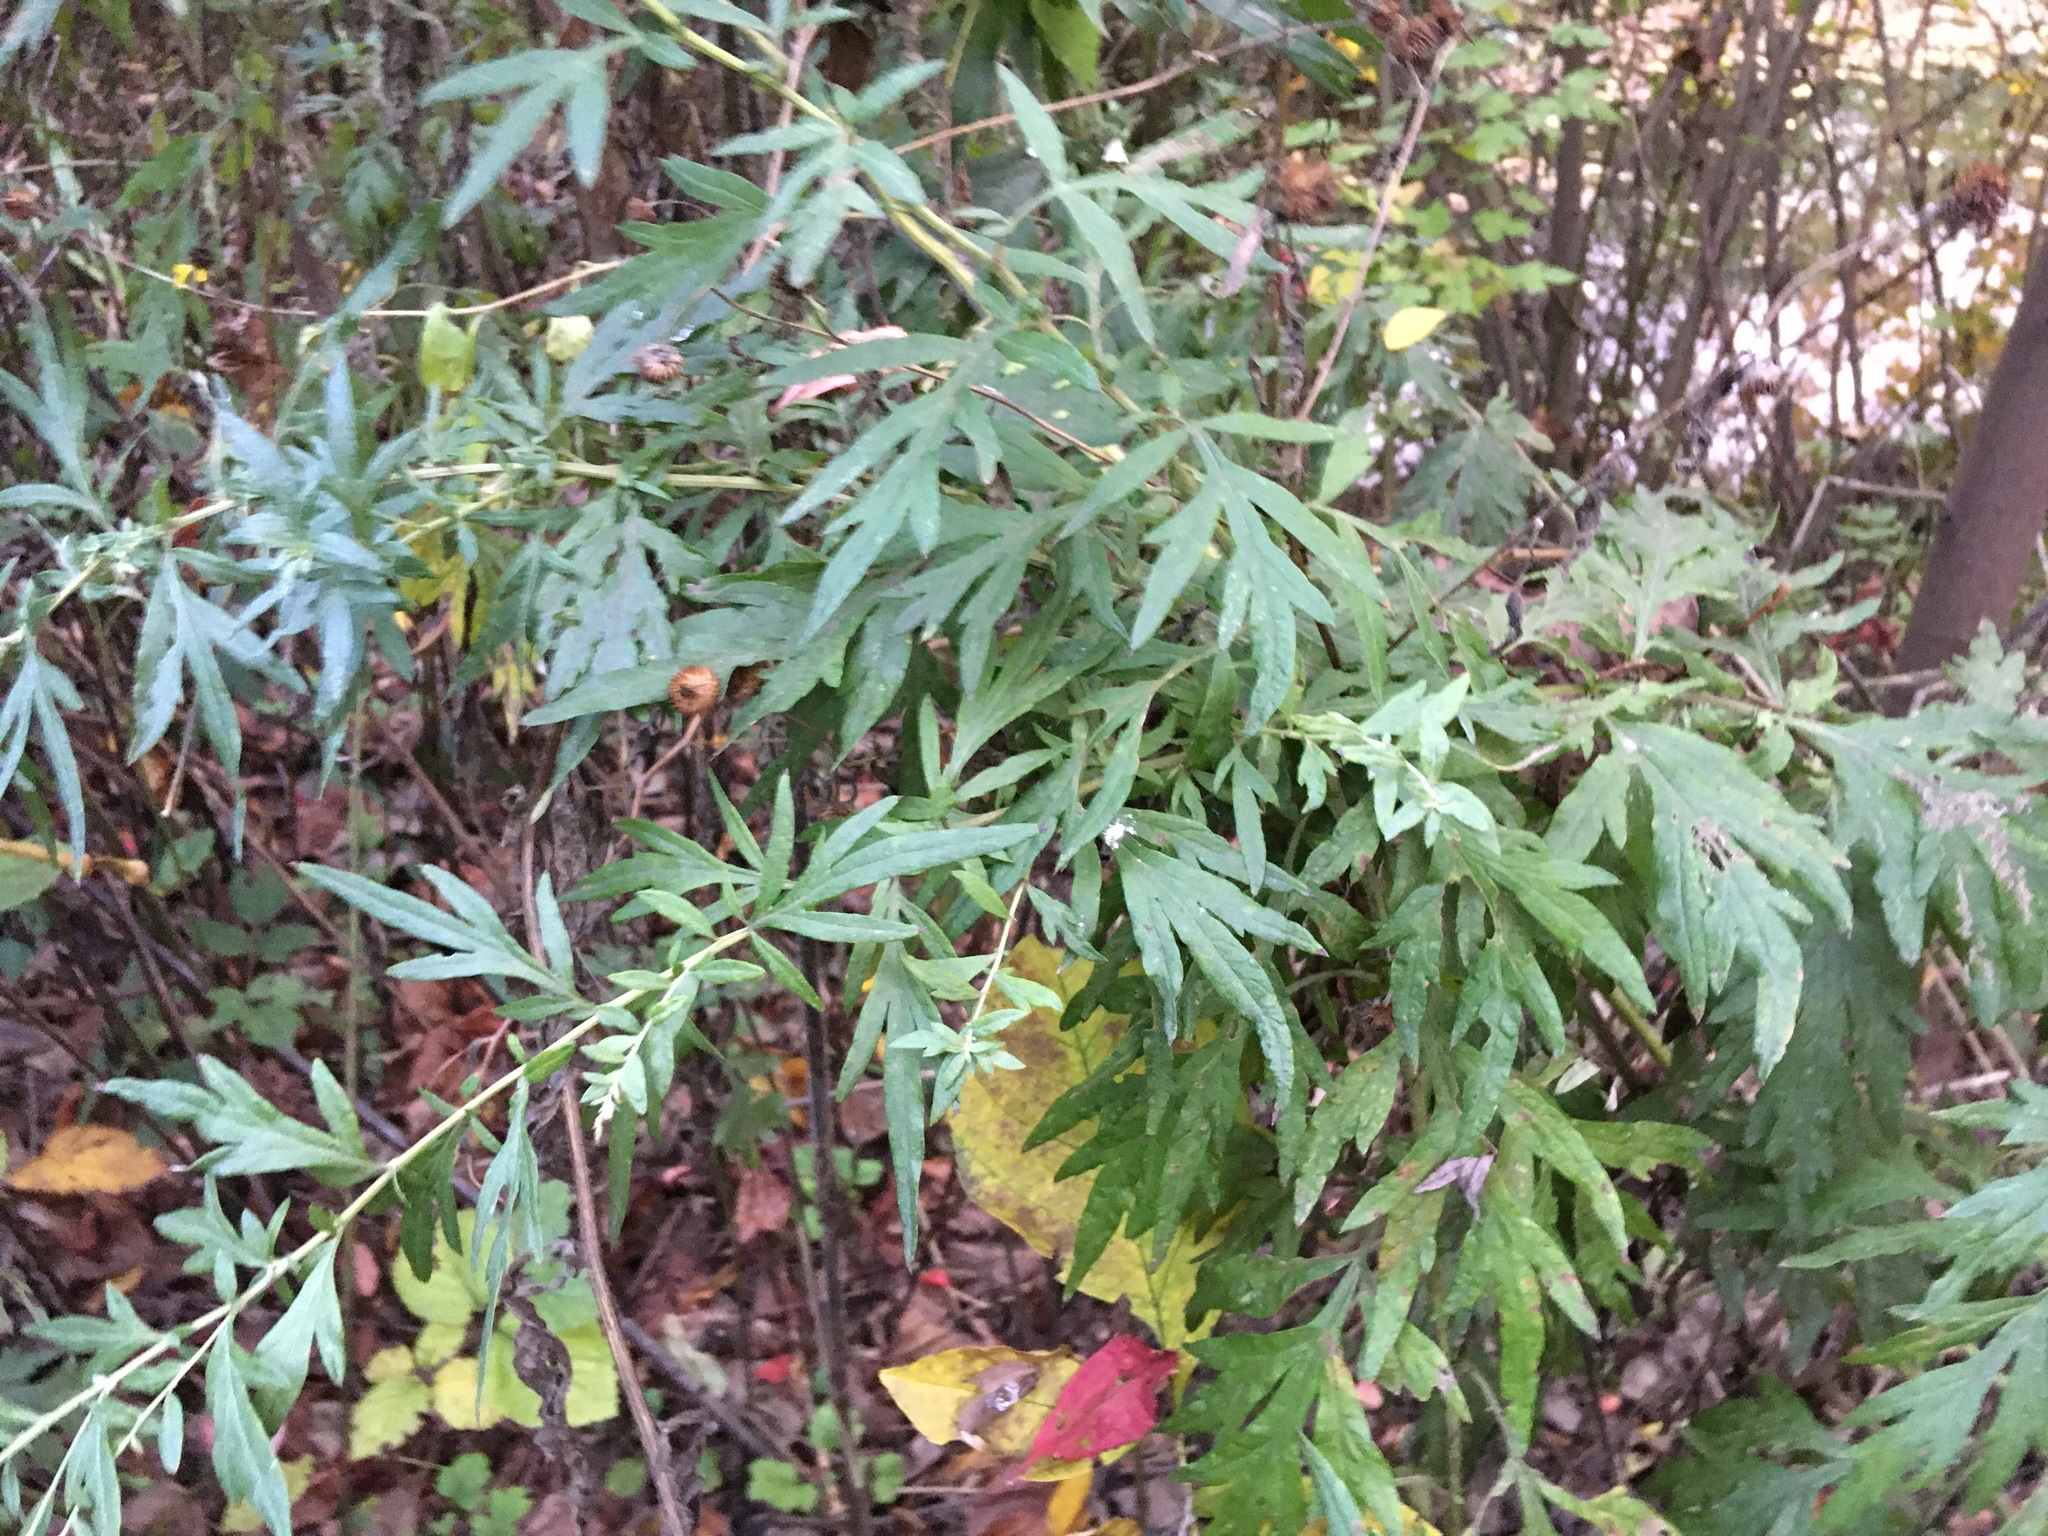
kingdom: Plantae
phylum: Tracheophyta
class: Magnoliopsida
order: Asterales
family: Asteraceae
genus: Artemisia
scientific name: Artemisia vulgaris
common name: Mugwort
